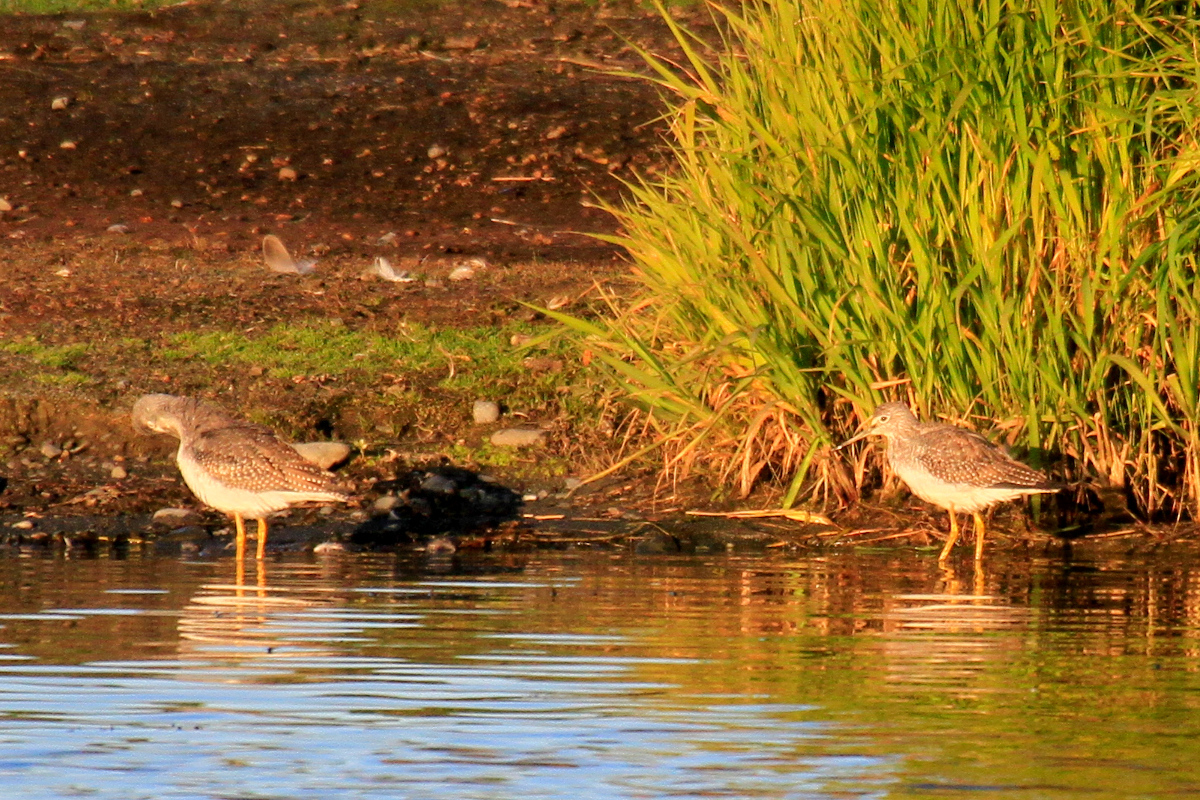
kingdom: Animalia
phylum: Chordata
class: Aves
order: Charadriiformes
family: Scolopacidae
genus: Tringa
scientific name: Tringa melanoleuca
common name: Greater yellowlegs
